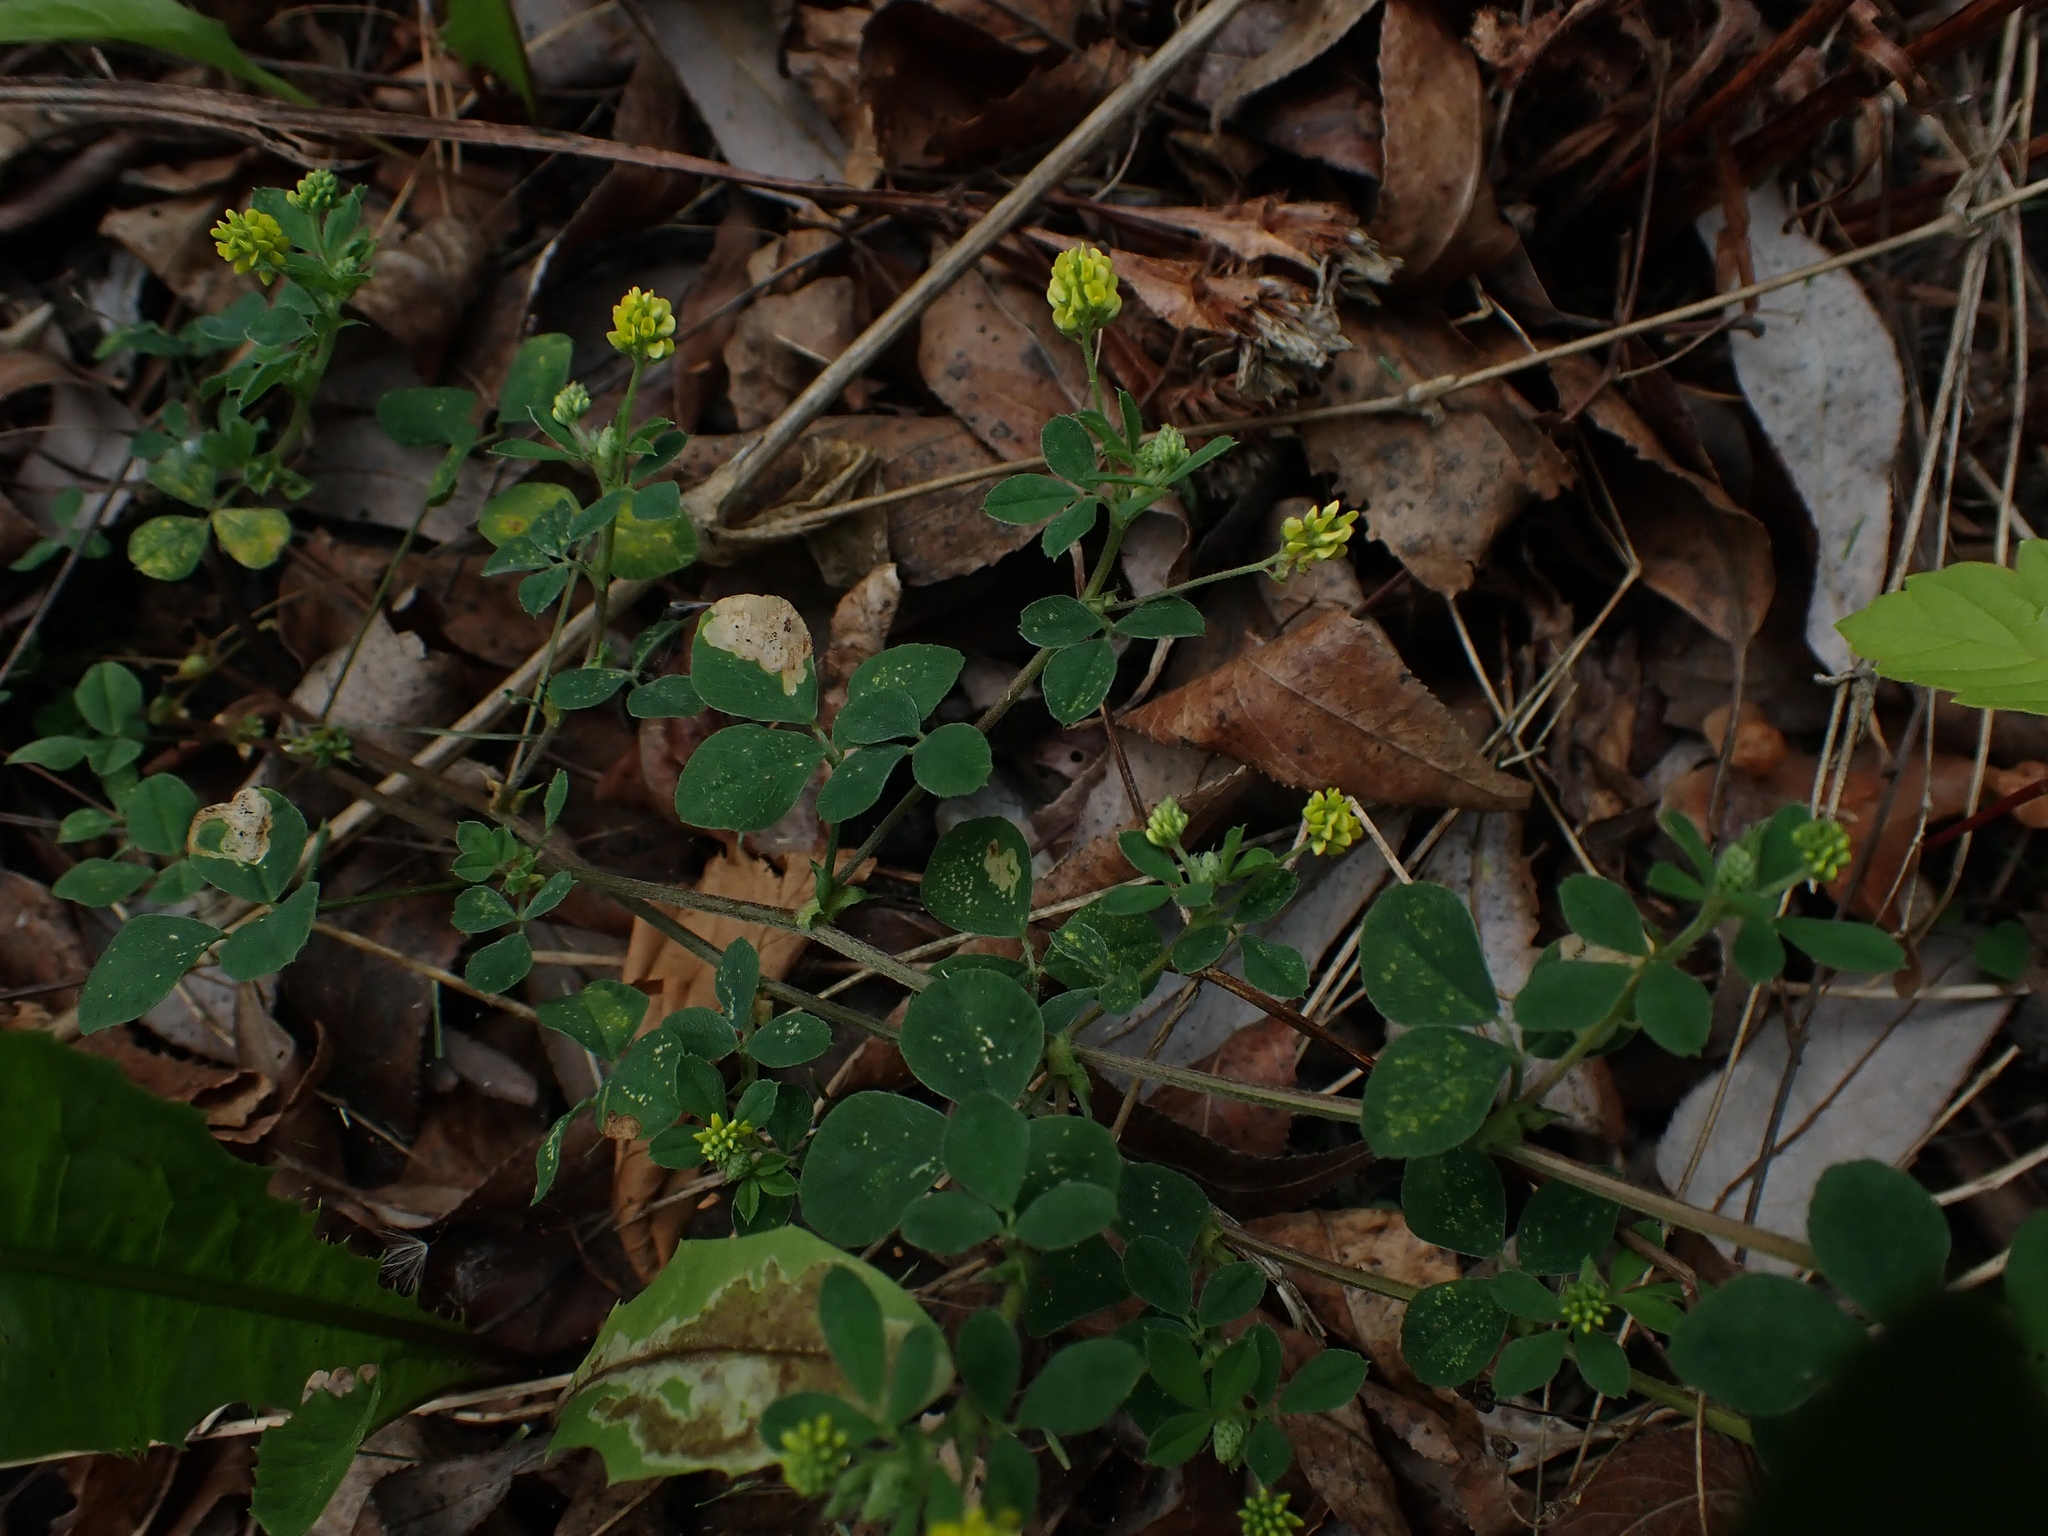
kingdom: Plantae
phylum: Tracheophyta
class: Magnoliopsida
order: Fabales
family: Fabaceae
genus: Medicago
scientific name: Medicago lupulina
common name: Black medick
